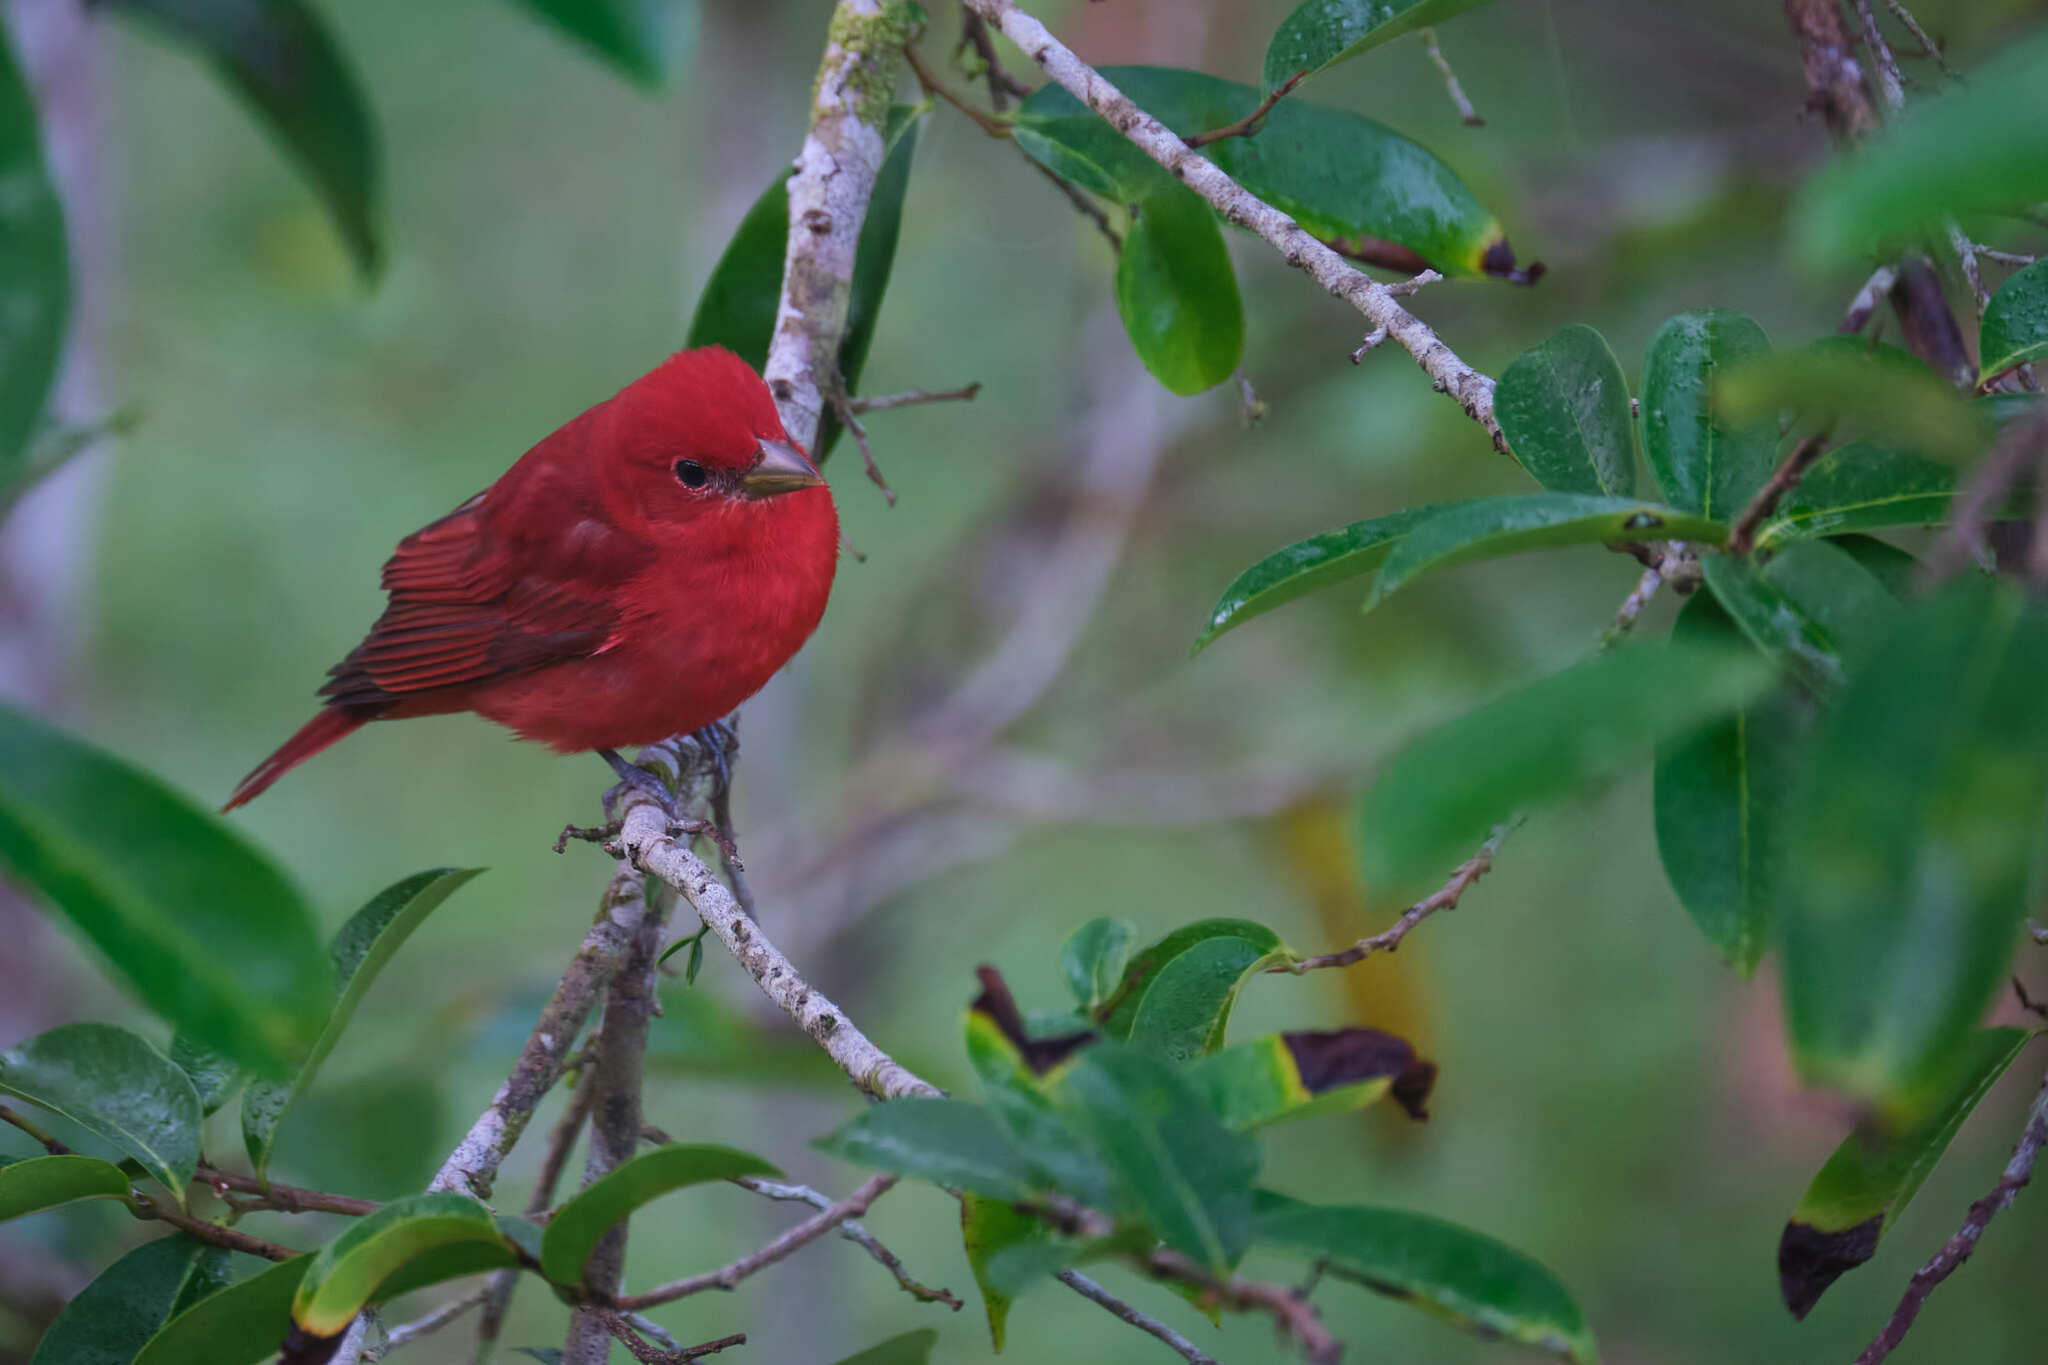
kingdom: Animalia
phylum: Chordata
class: Aves
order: Passeriformes
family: Cardinalidae
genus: Piranga
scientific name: Piranga rubra
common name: Summer tanager
